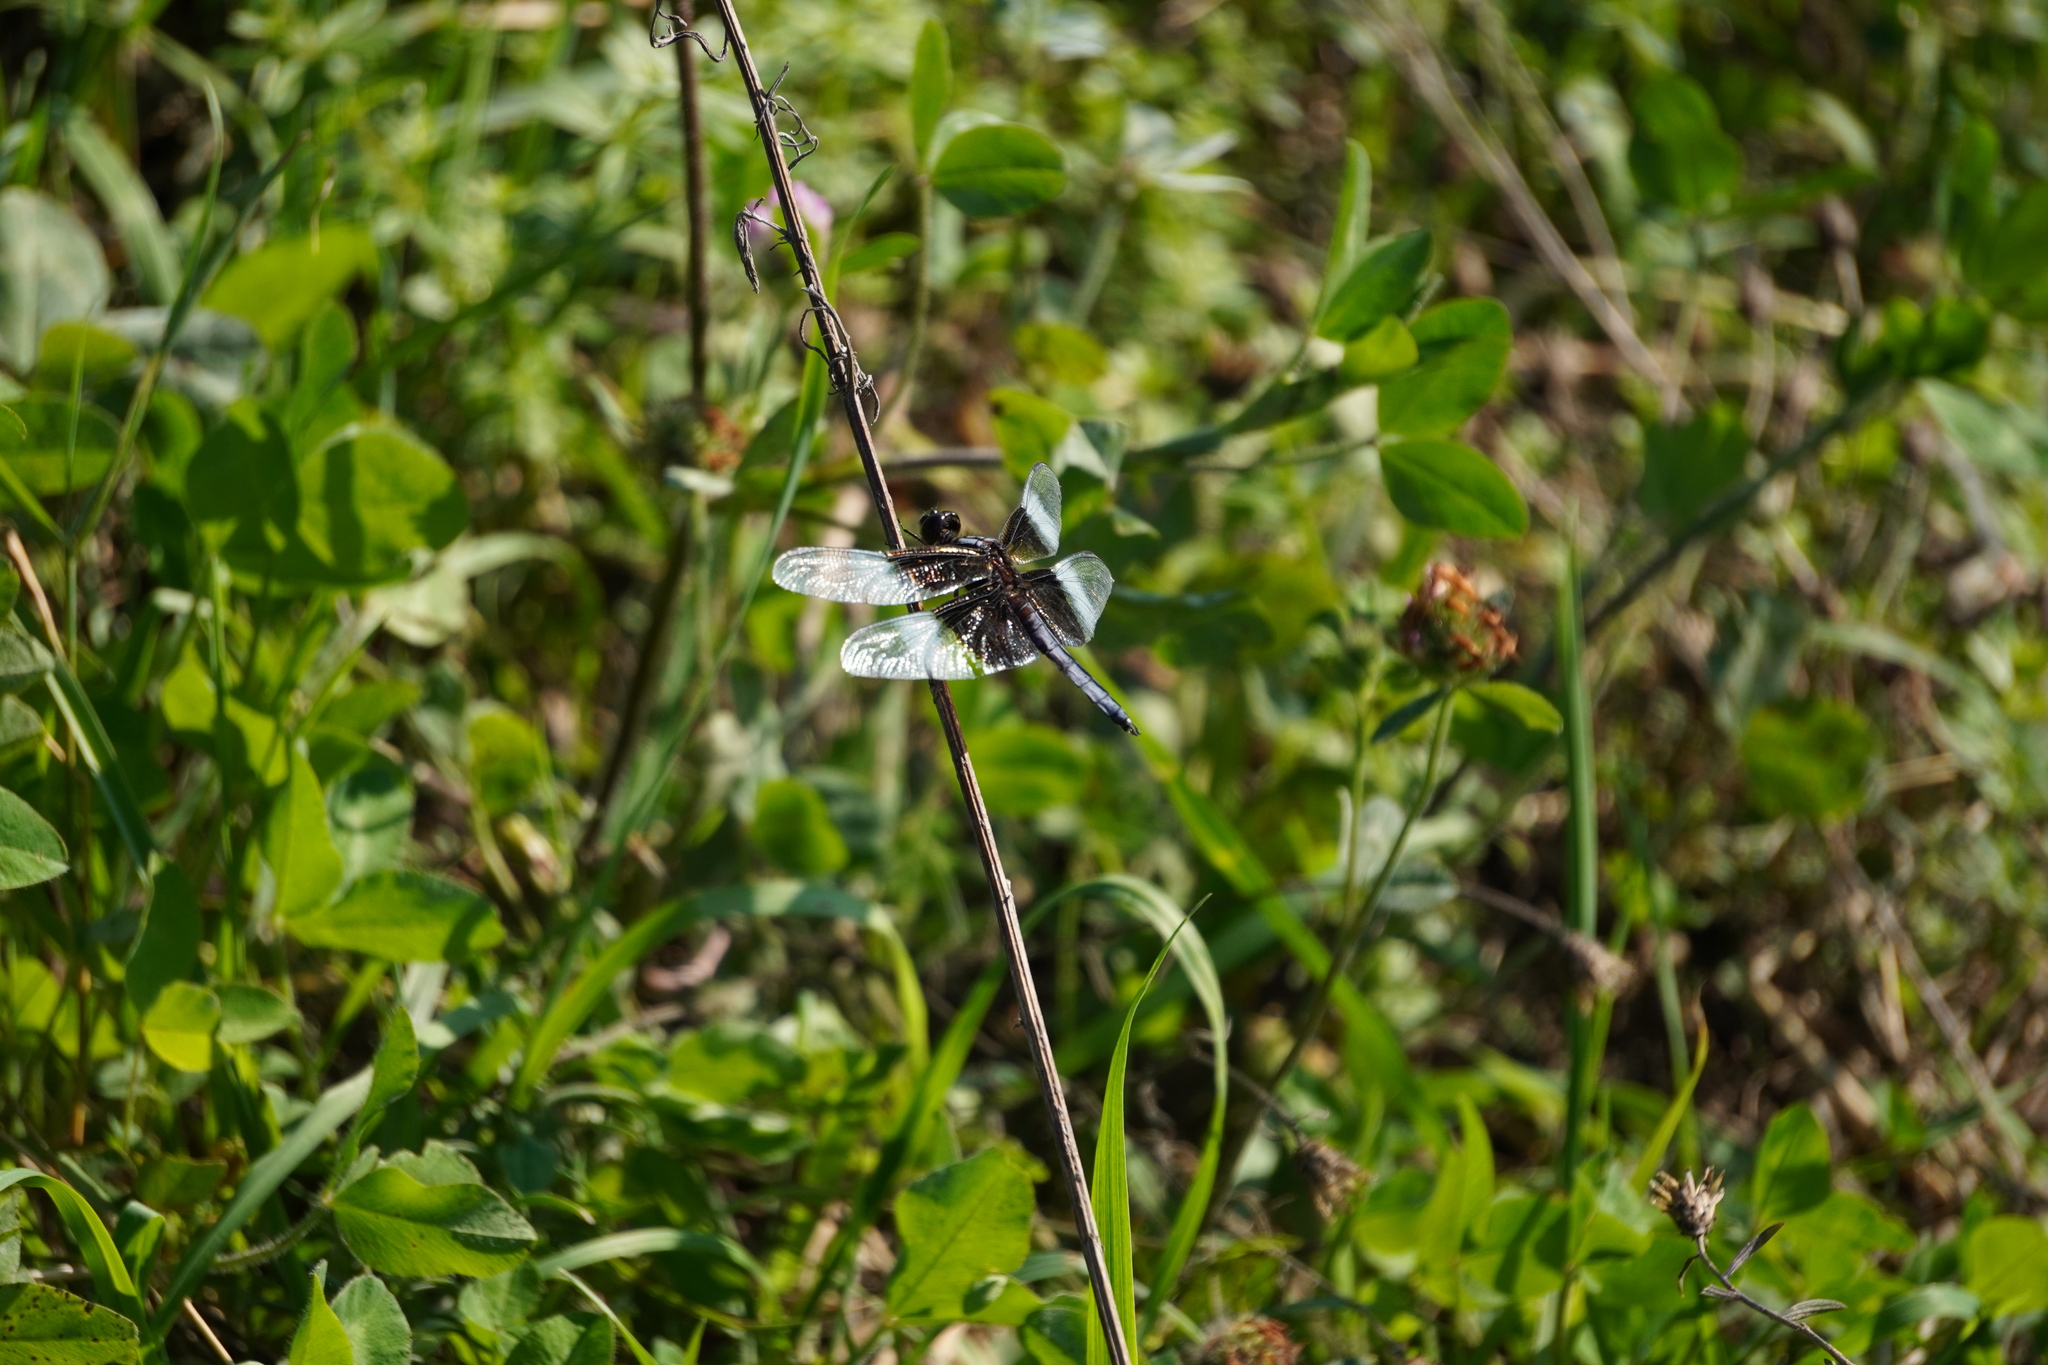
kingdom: Animalia
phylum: Arthropoda
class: Insecta
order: Odonata
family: Libellulidae
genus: Libellula
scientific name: Libellula luctuosa
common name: Widow skimmer
